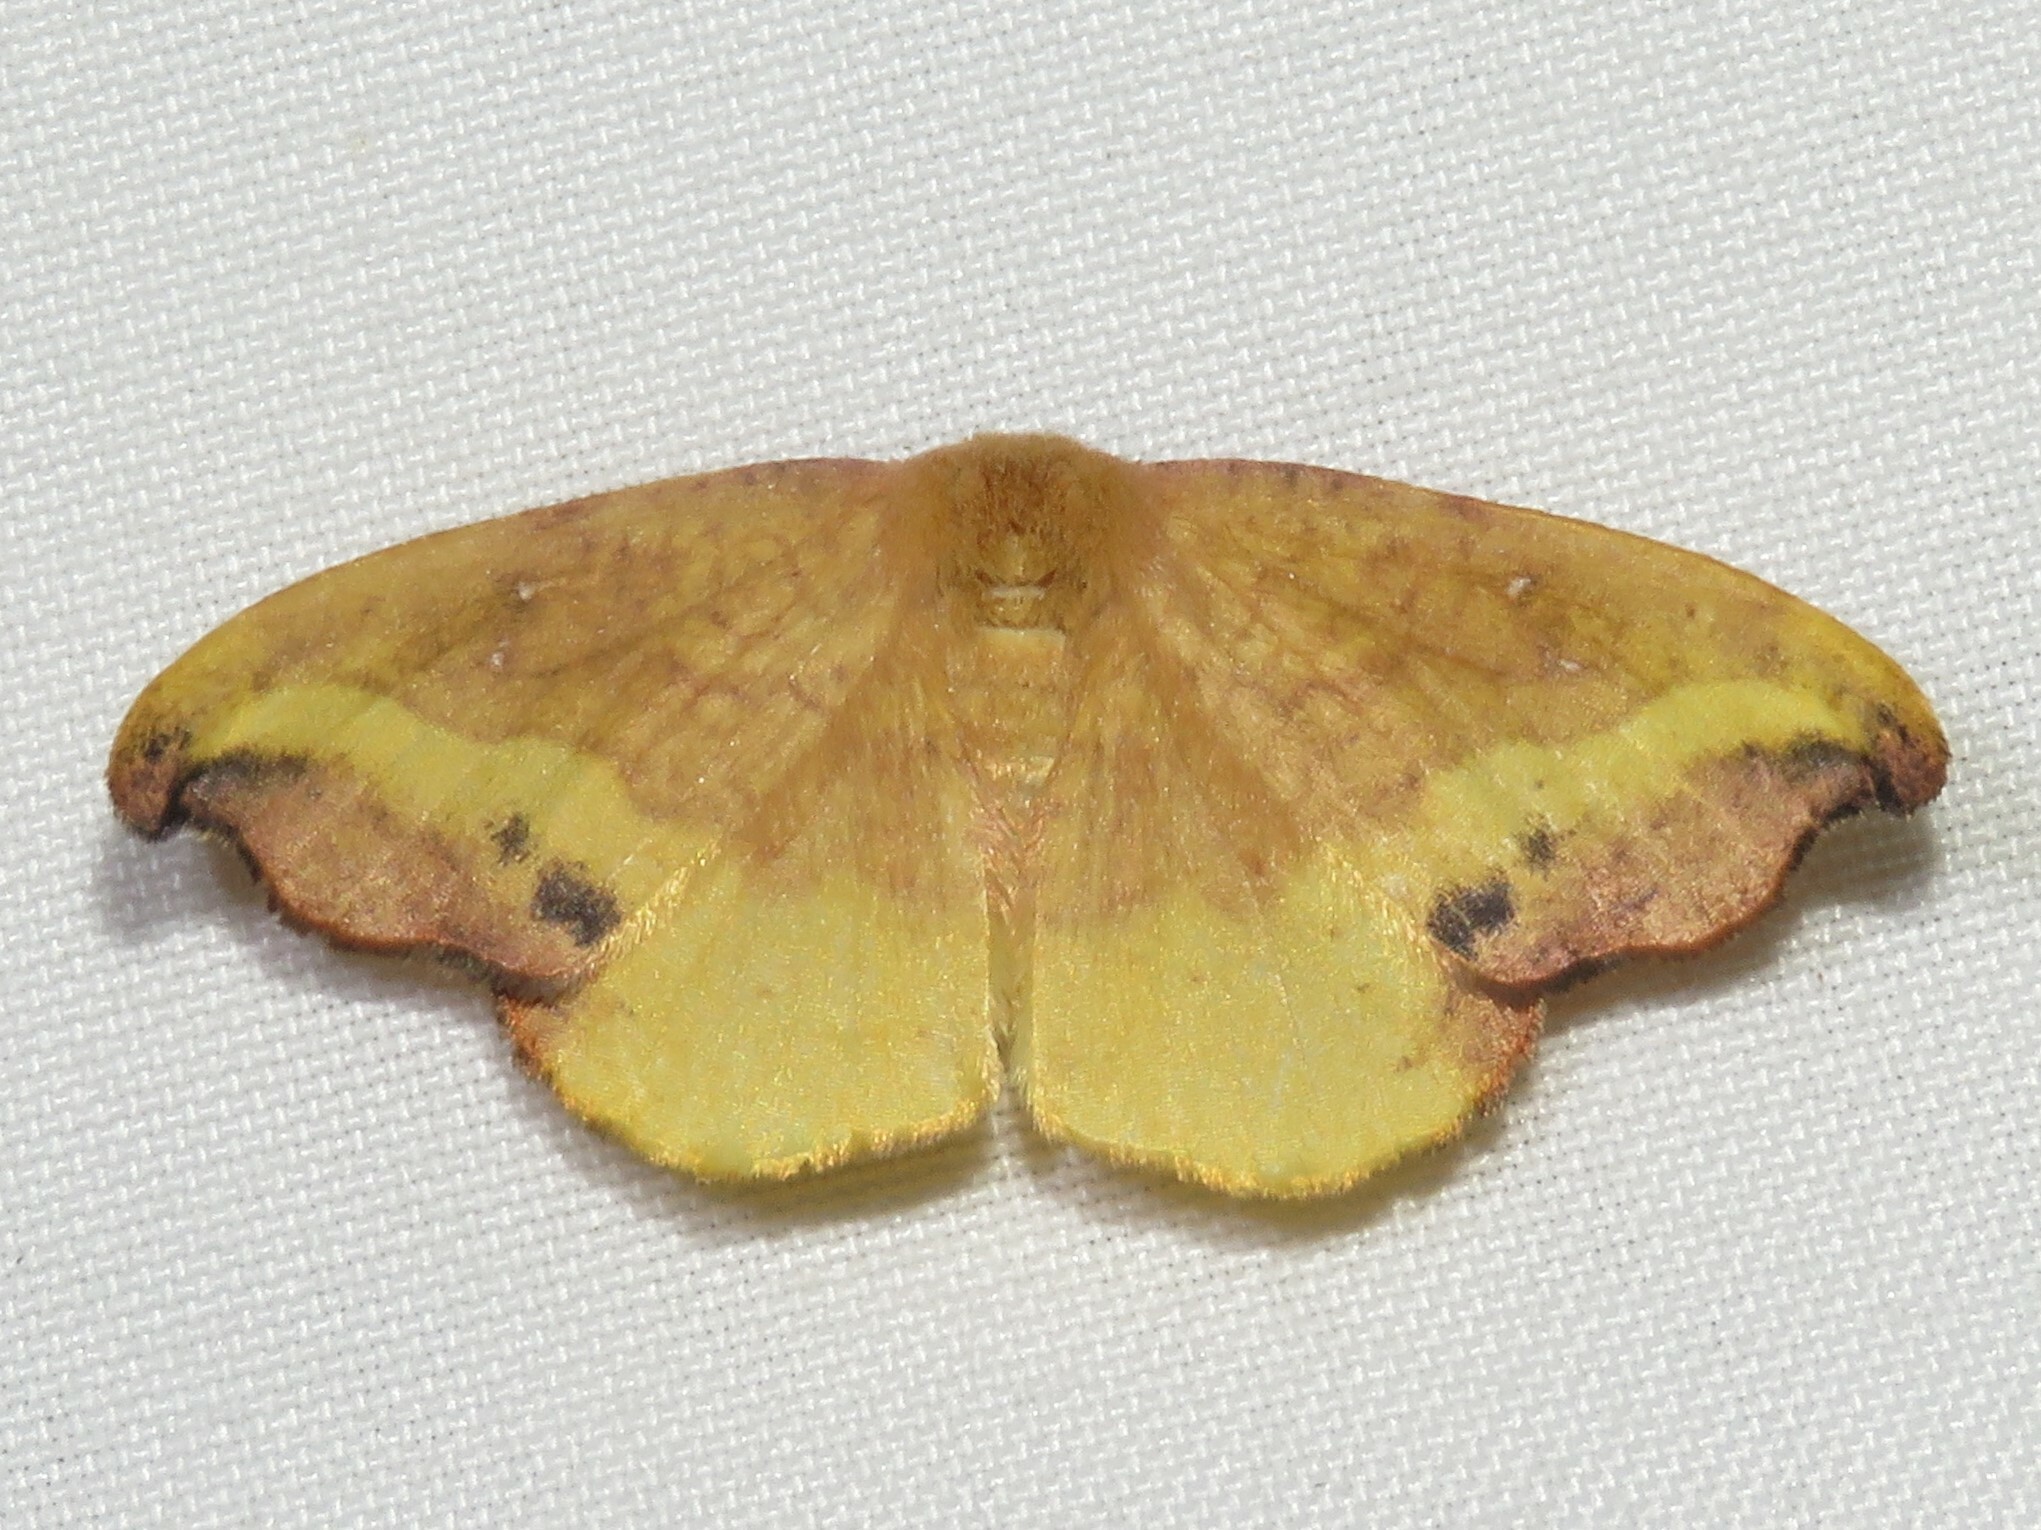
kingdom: Animalia
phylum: Arthropoda
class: Insecta
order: Lepidoptera
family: Drepanidae
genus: Oreta
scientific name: Oreta rosea
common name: Rose hooktip
